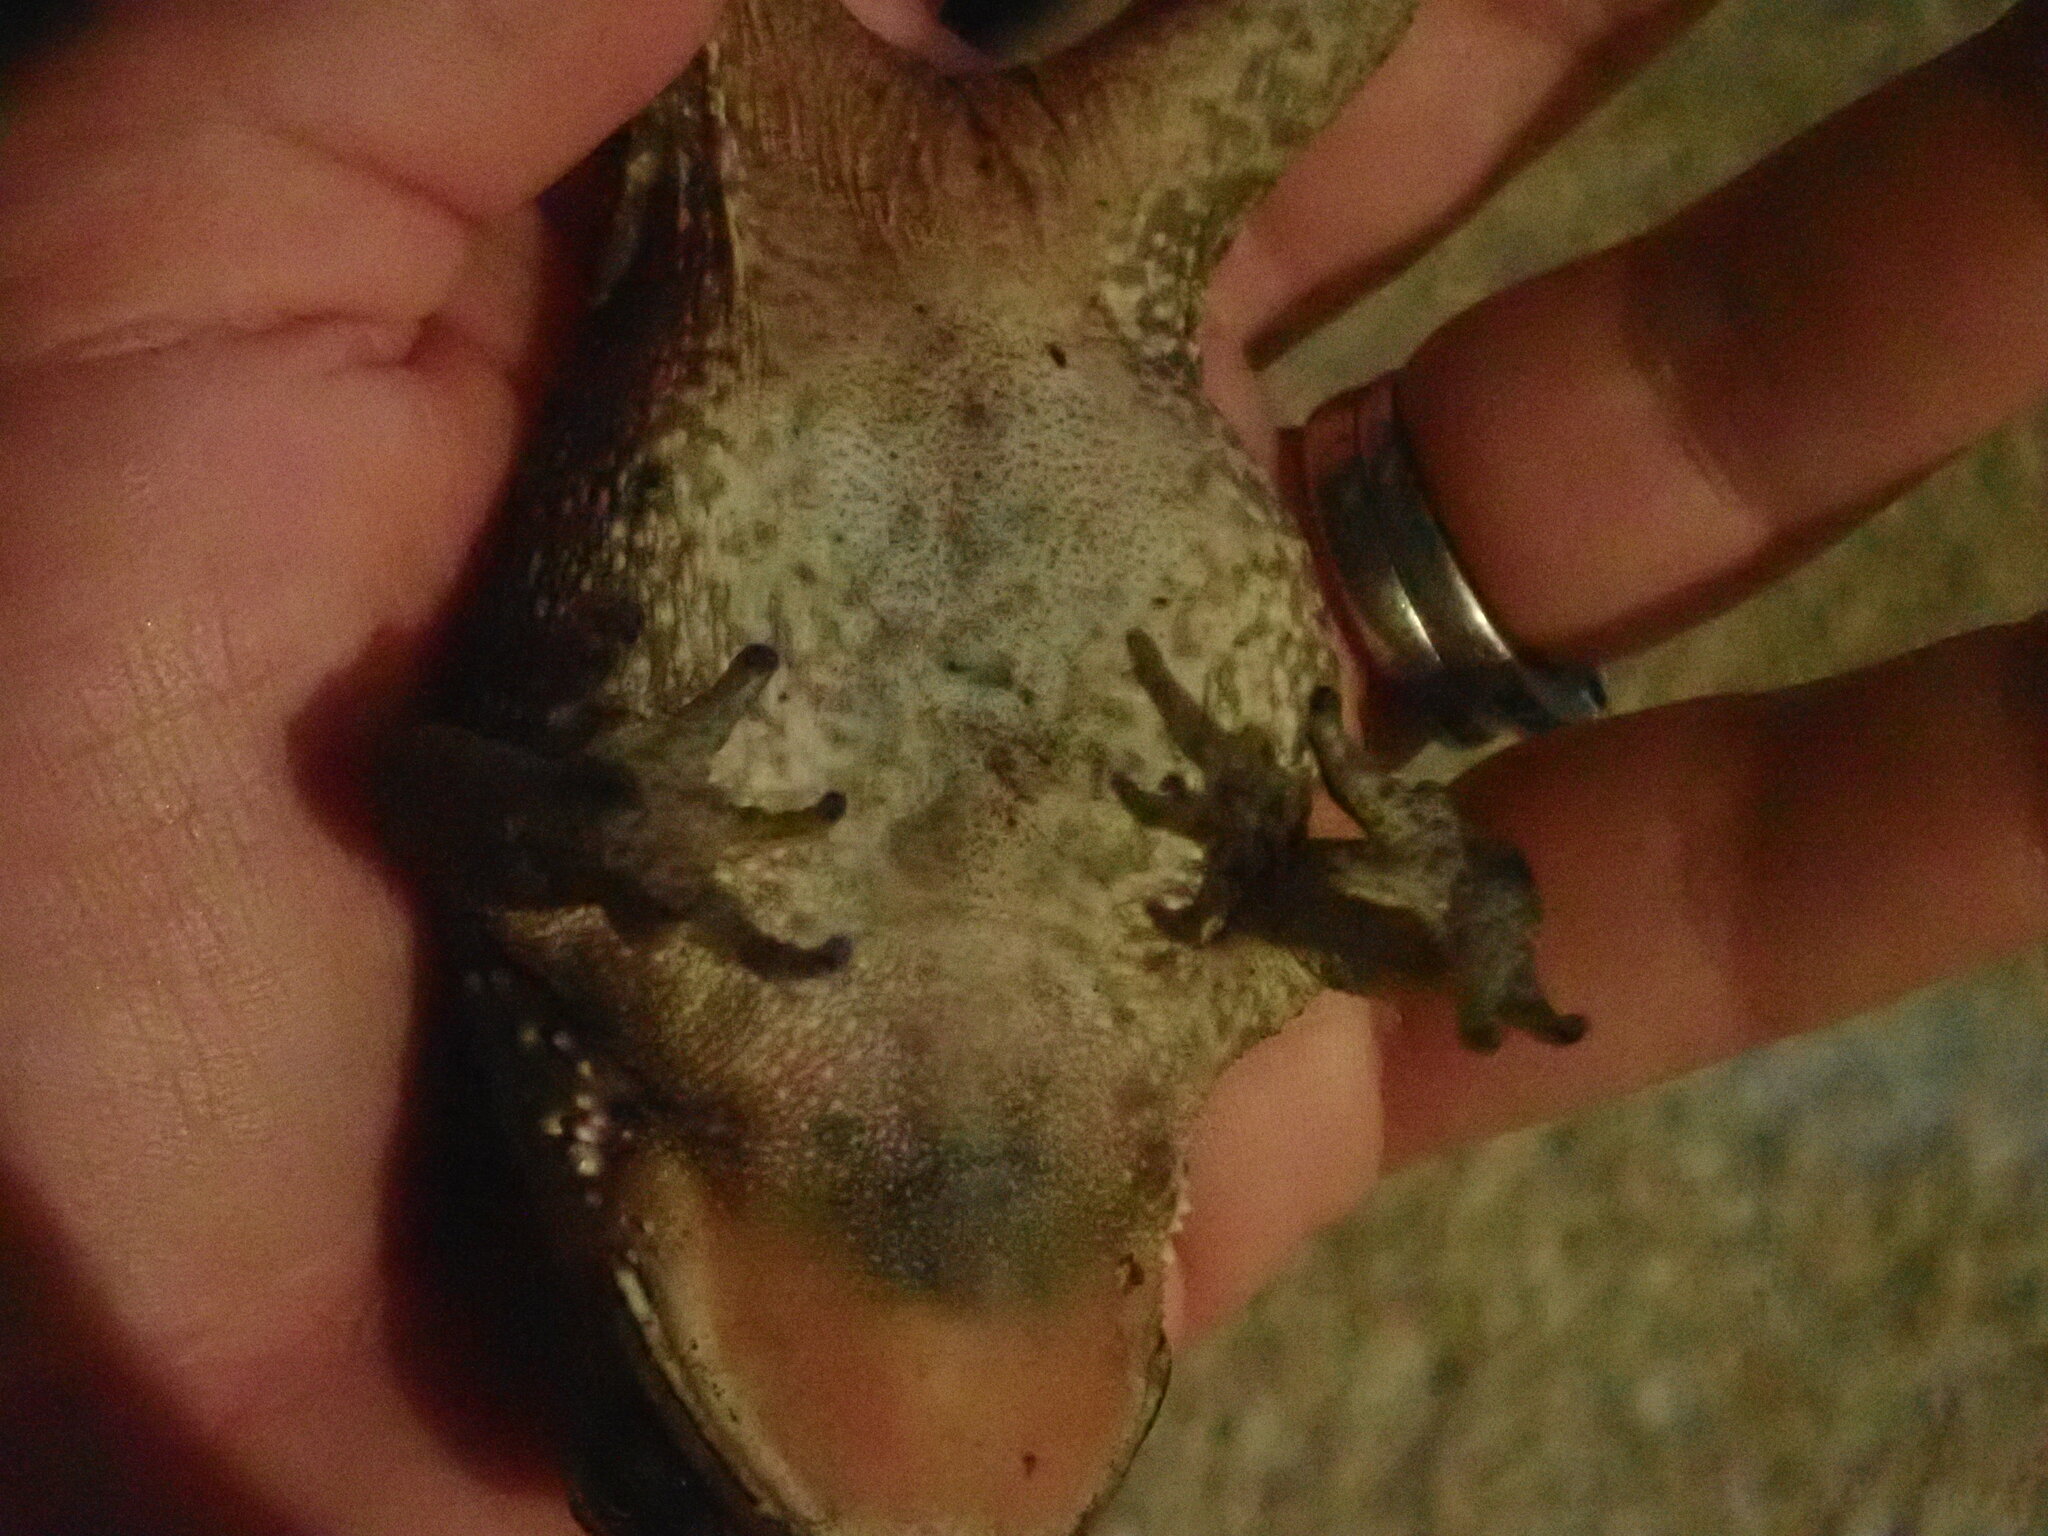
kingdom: Animalia
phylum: Chordata
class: Amphibia
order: Anura
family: Bufonidae
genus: Duttaphrynus
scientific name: Duttaphrynus melanostictus
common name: Common sunda toad
